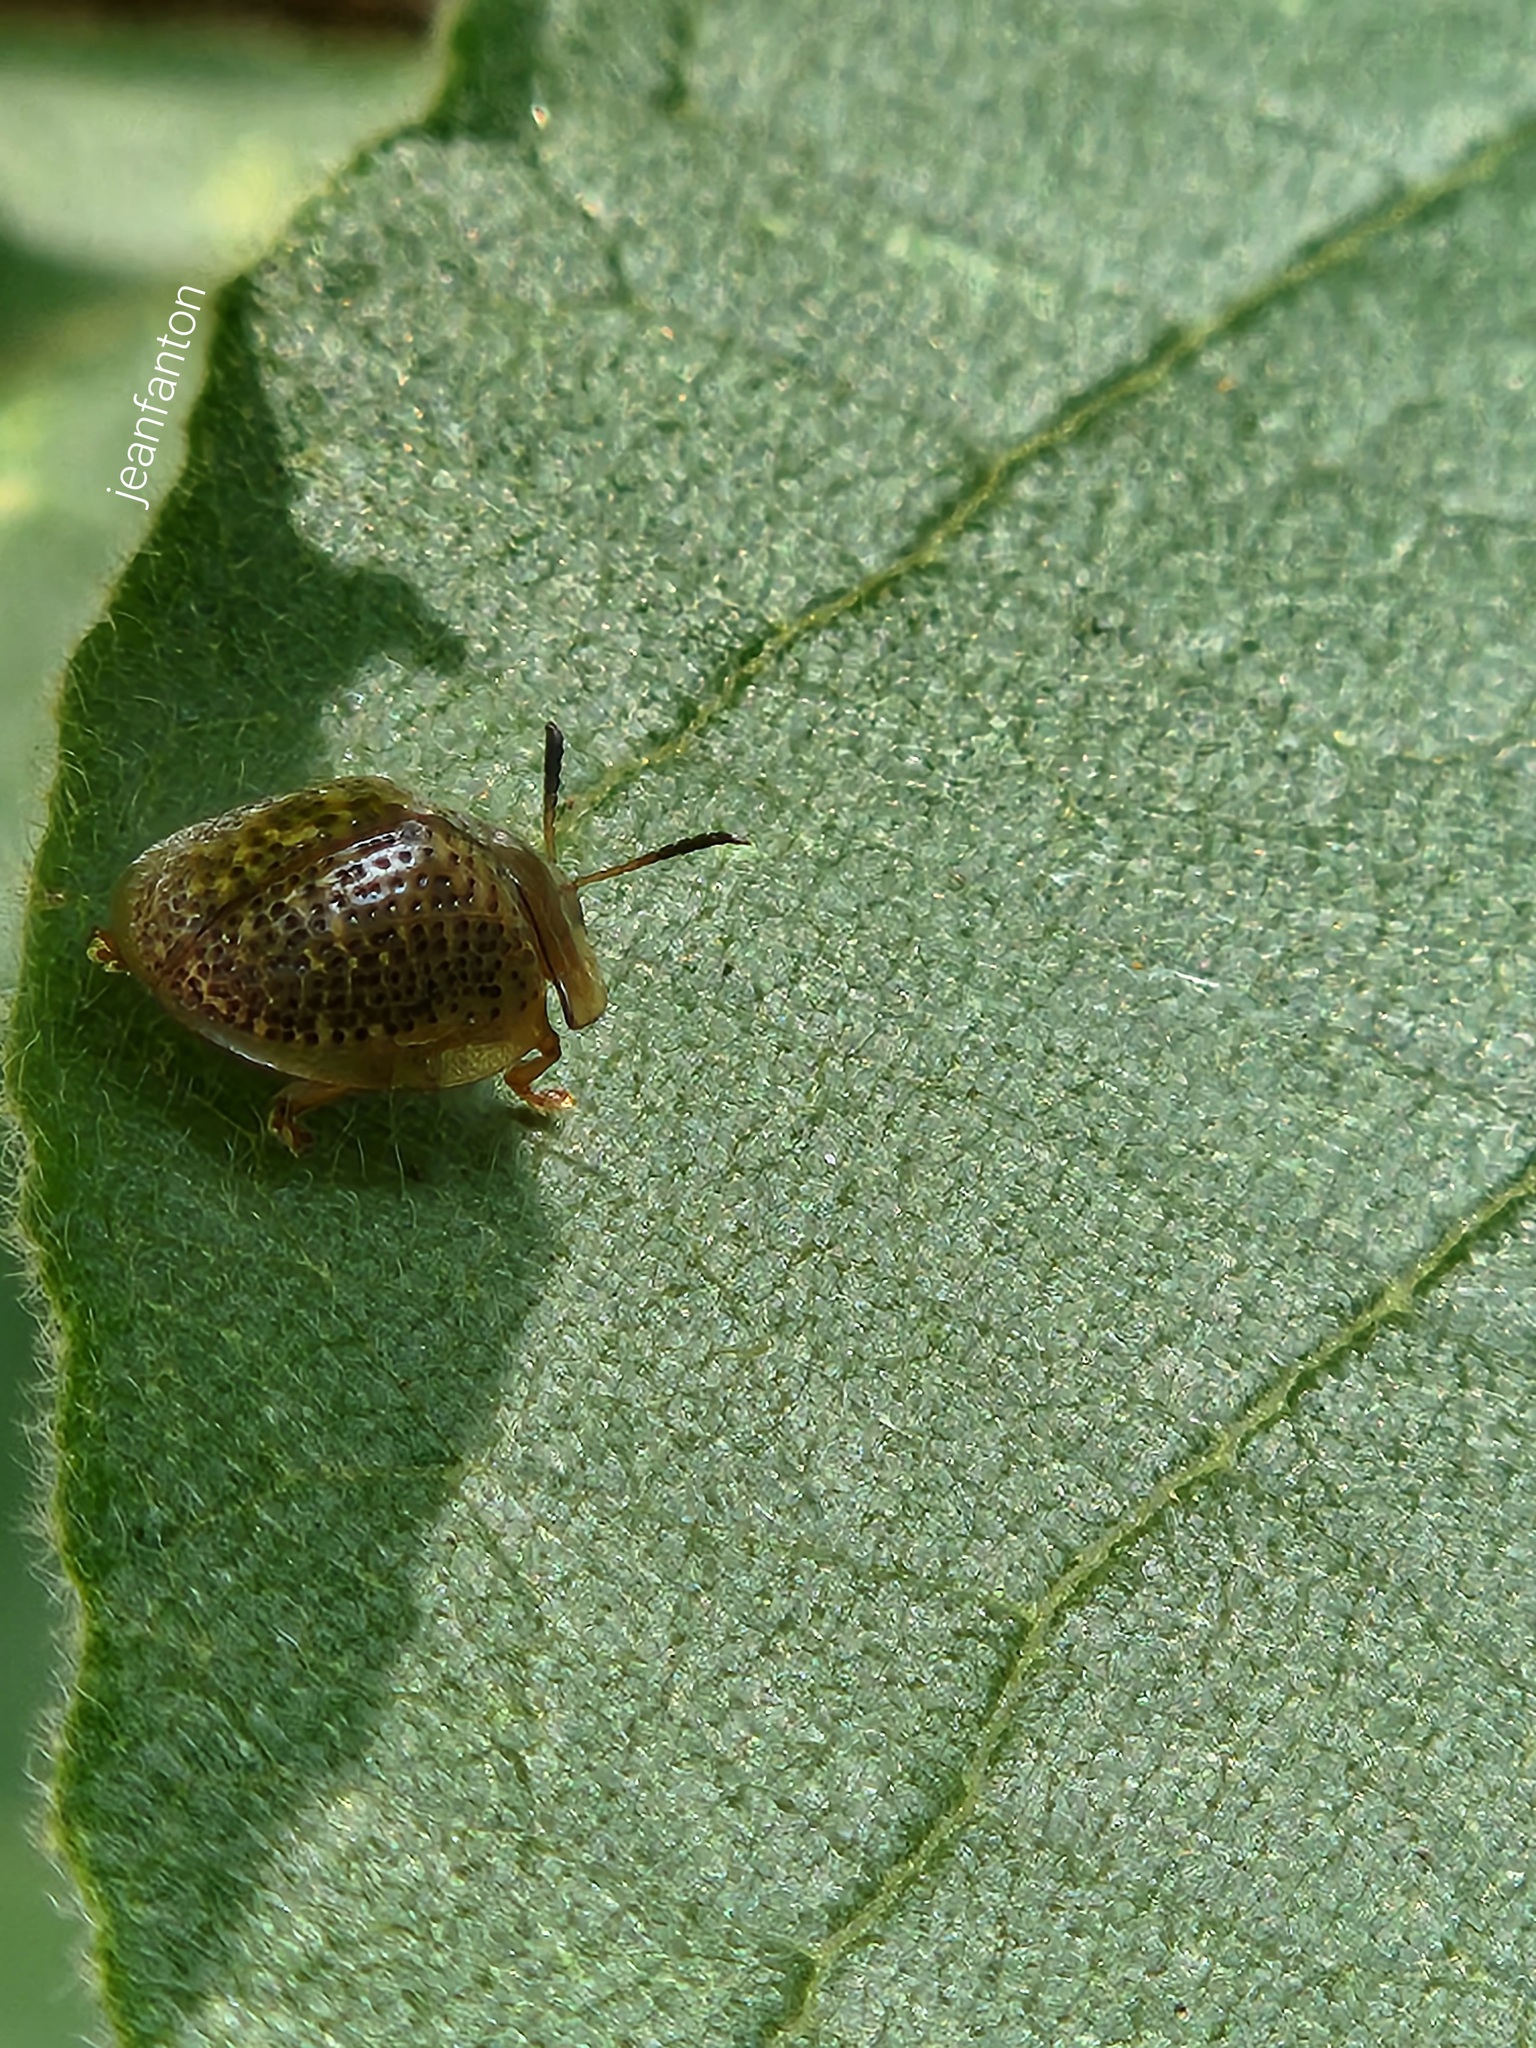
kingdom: Animalia
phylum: Arthropoda
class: Insecta
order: Coleoptera
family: Chrysomelidae
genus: Cistudinella
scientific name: Cistudinella obducta
